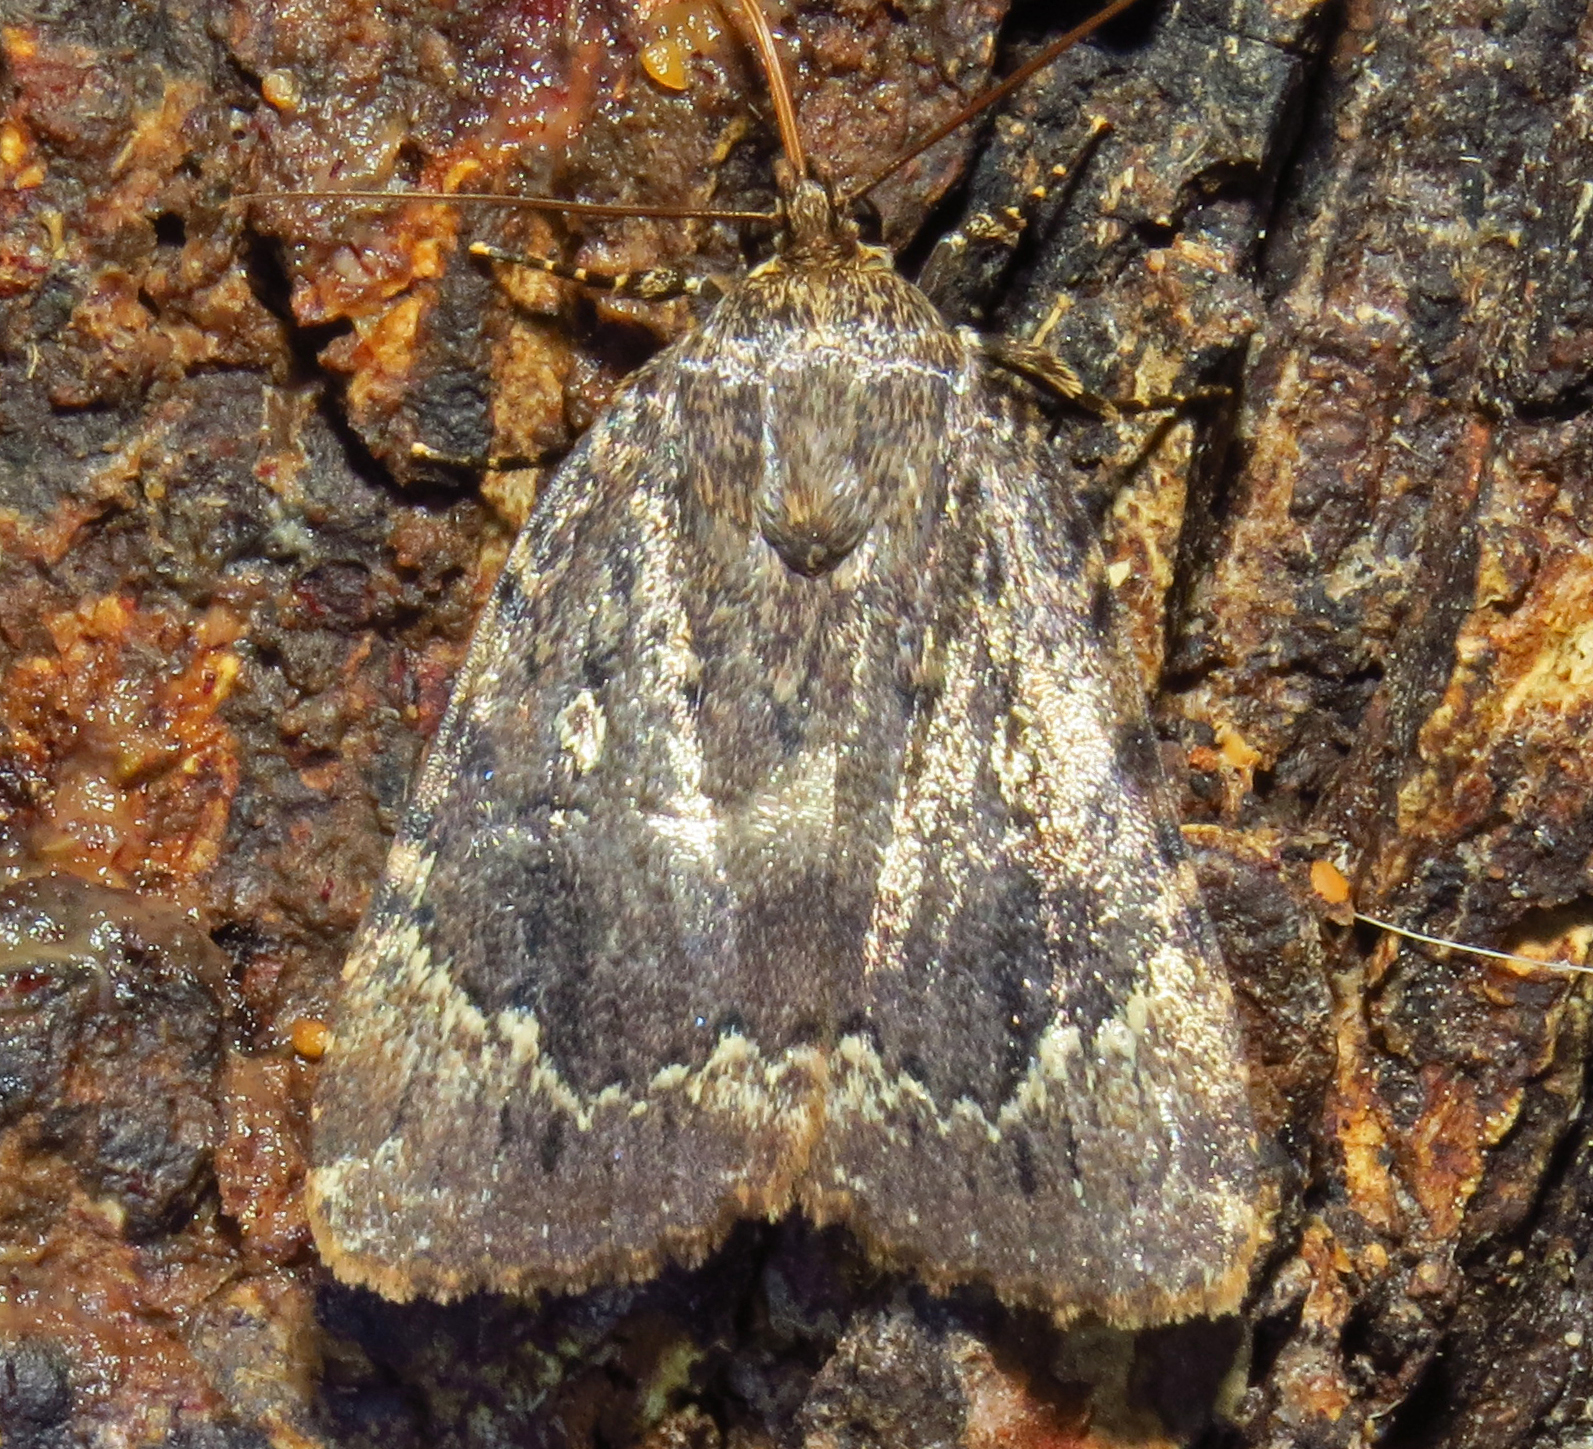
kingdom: Animalia
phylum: Arthropoda
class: Insecta
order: Lepidoptera
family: Noctuidae
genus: Amphipyra
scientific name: Amphipyra pyramidoides
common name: American copper underwing
